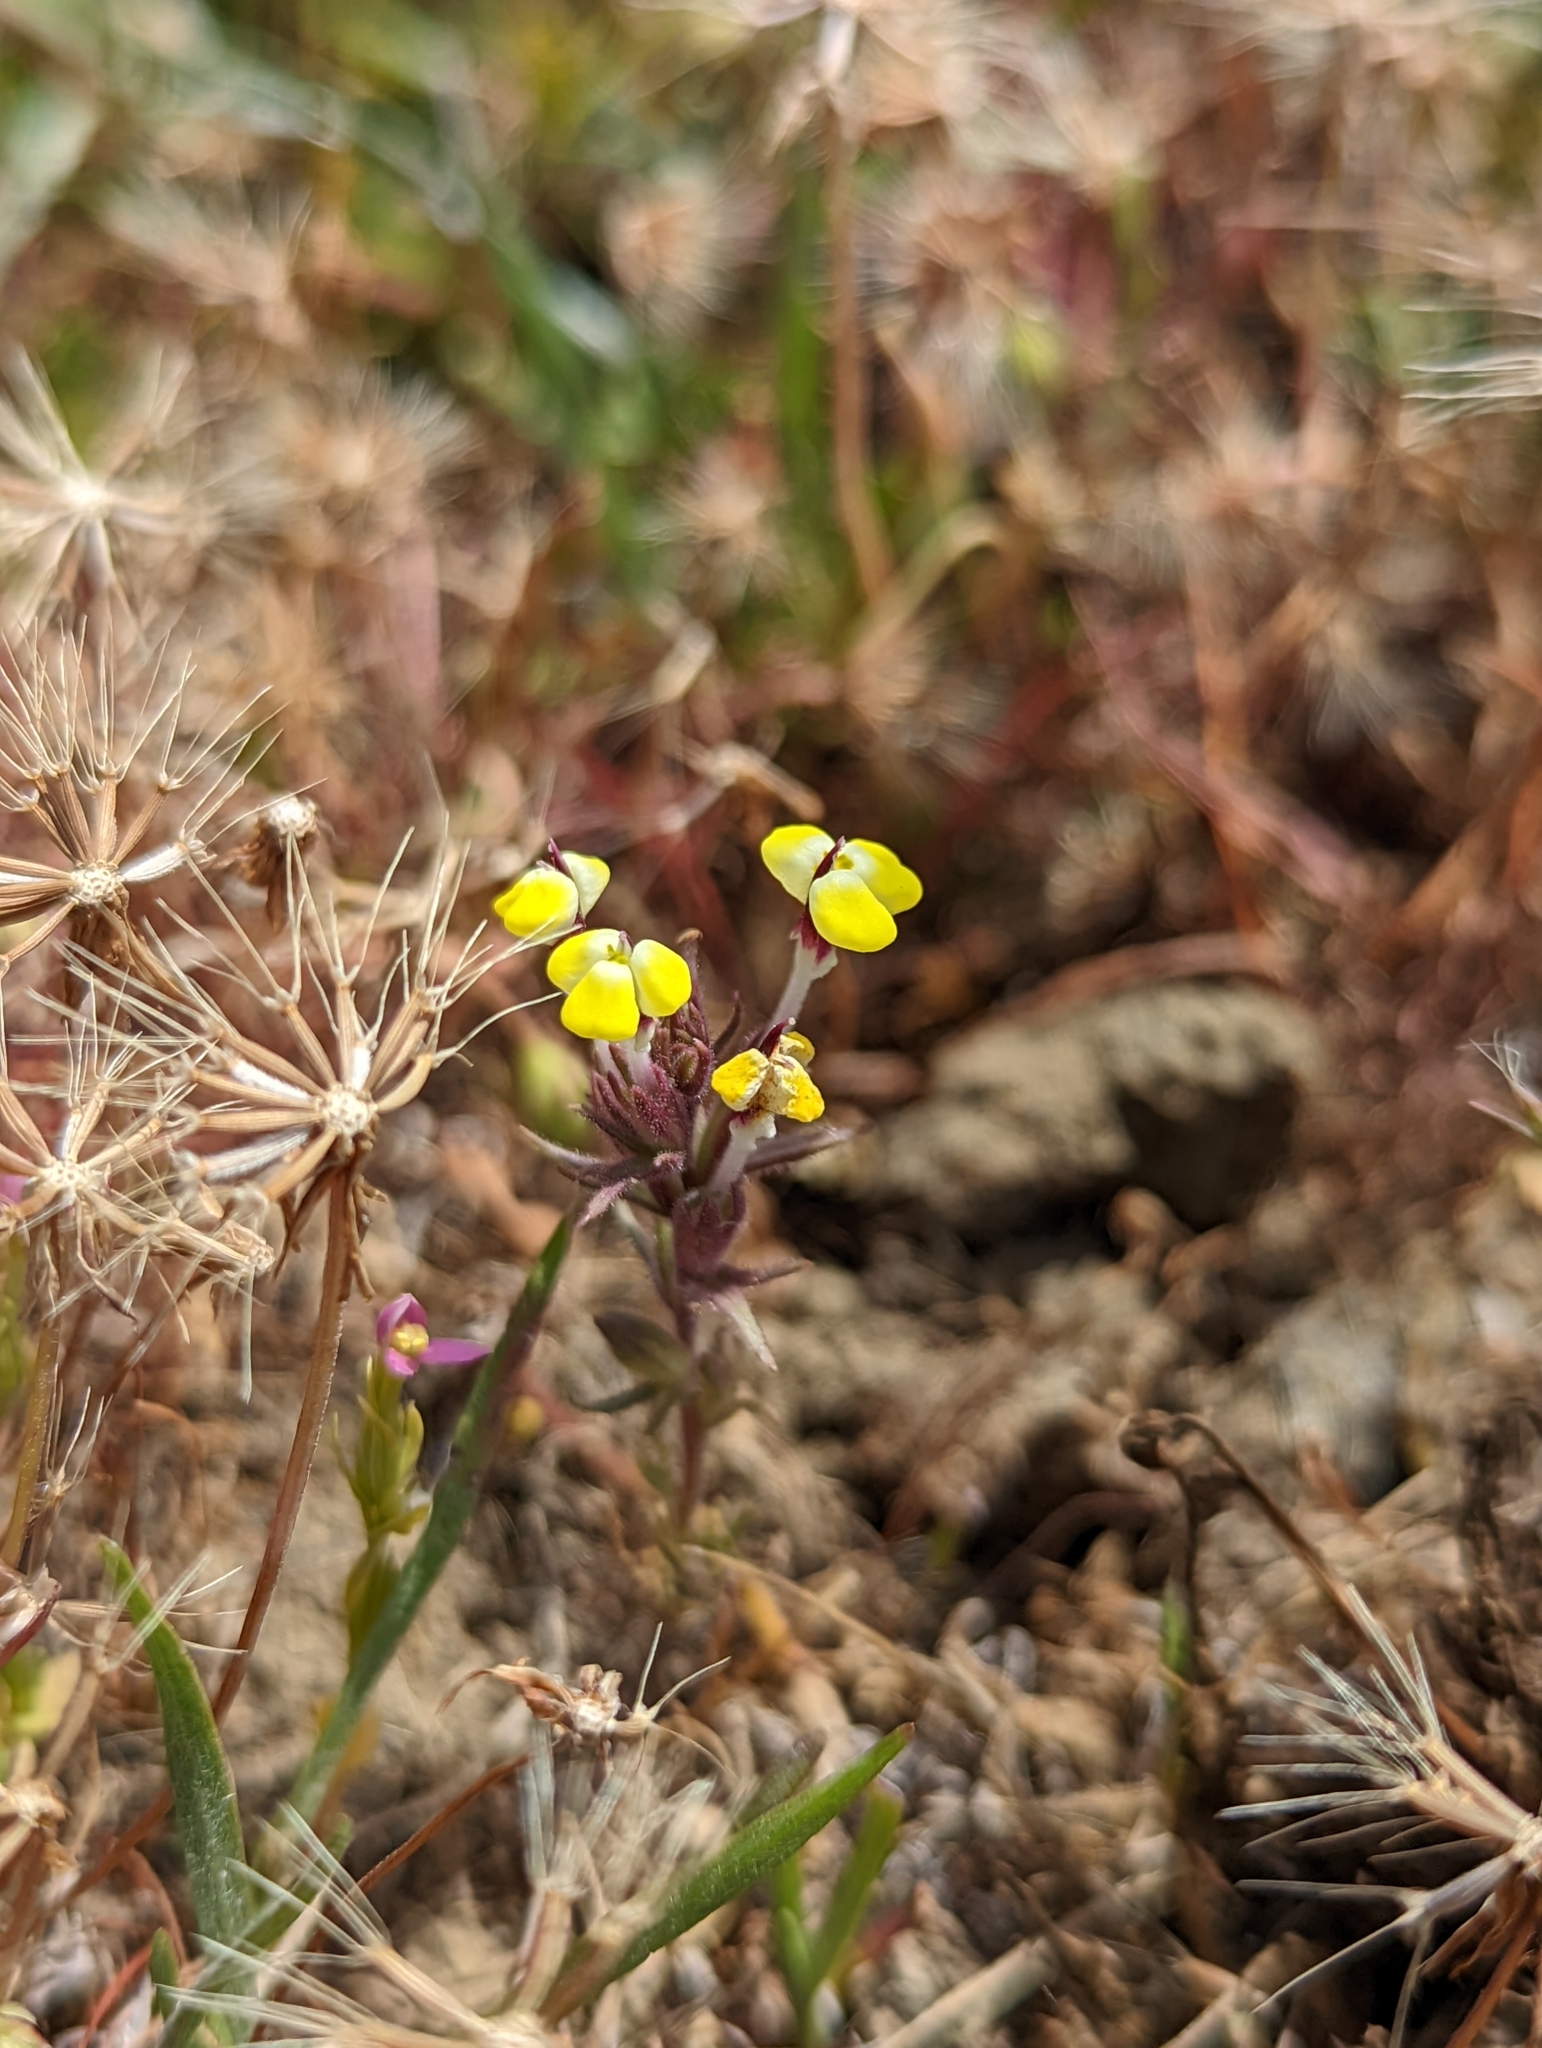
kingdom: Plantae
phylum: Tracheophyta
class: Magnoliopsida
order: Lamiales
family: Orobanchaceae
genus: Triphysaria
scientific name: Triphysaria eriantha
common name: Johnny-tuck
